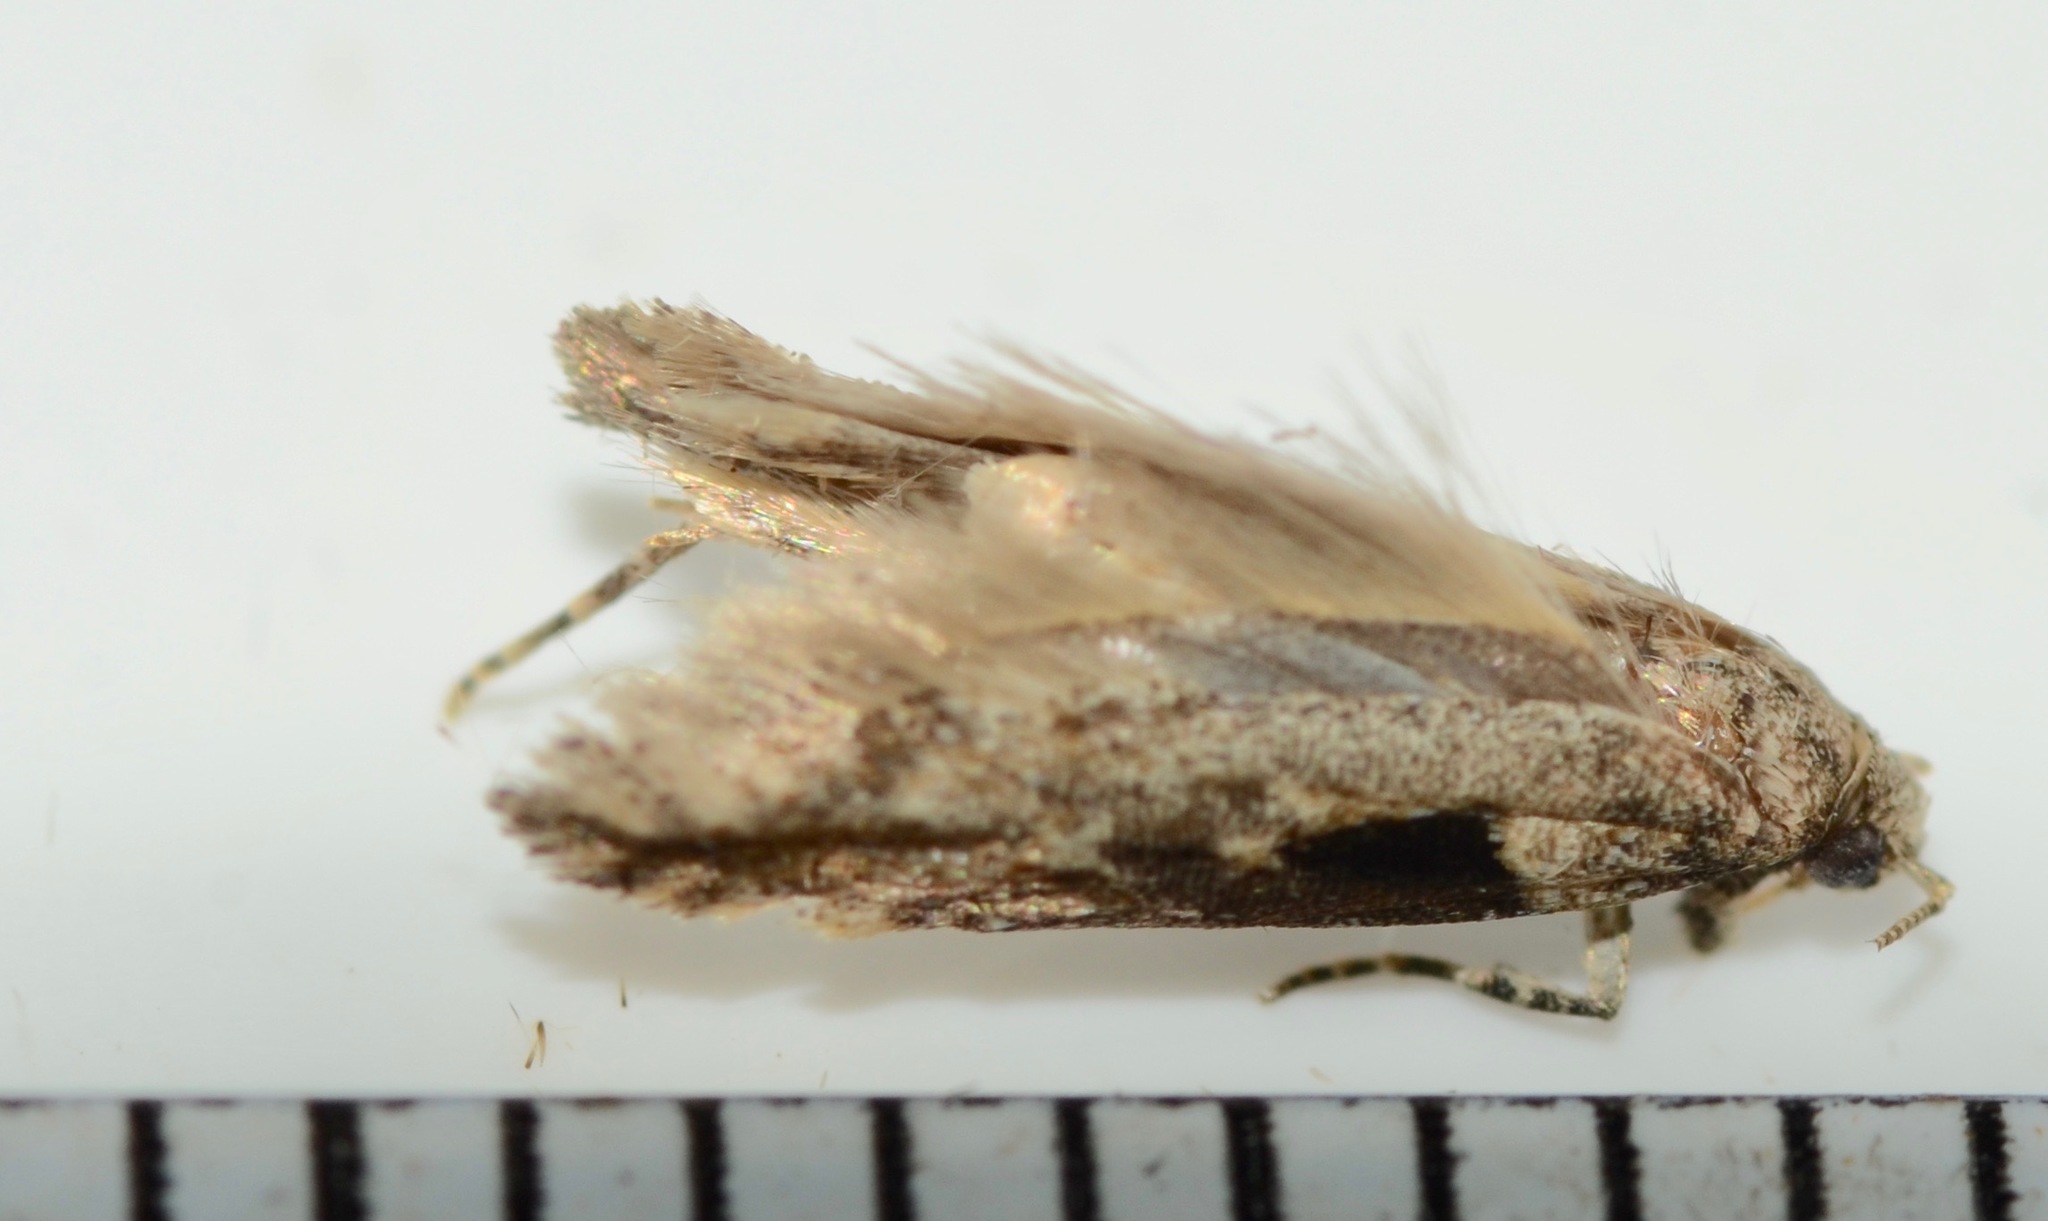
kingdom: Animalia
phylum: Arthropoda
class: Insecta
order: Lepidoptera
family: Gelechiidae
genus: Symmetrischema
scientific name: Symmetrischema tangolias
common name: Moth
